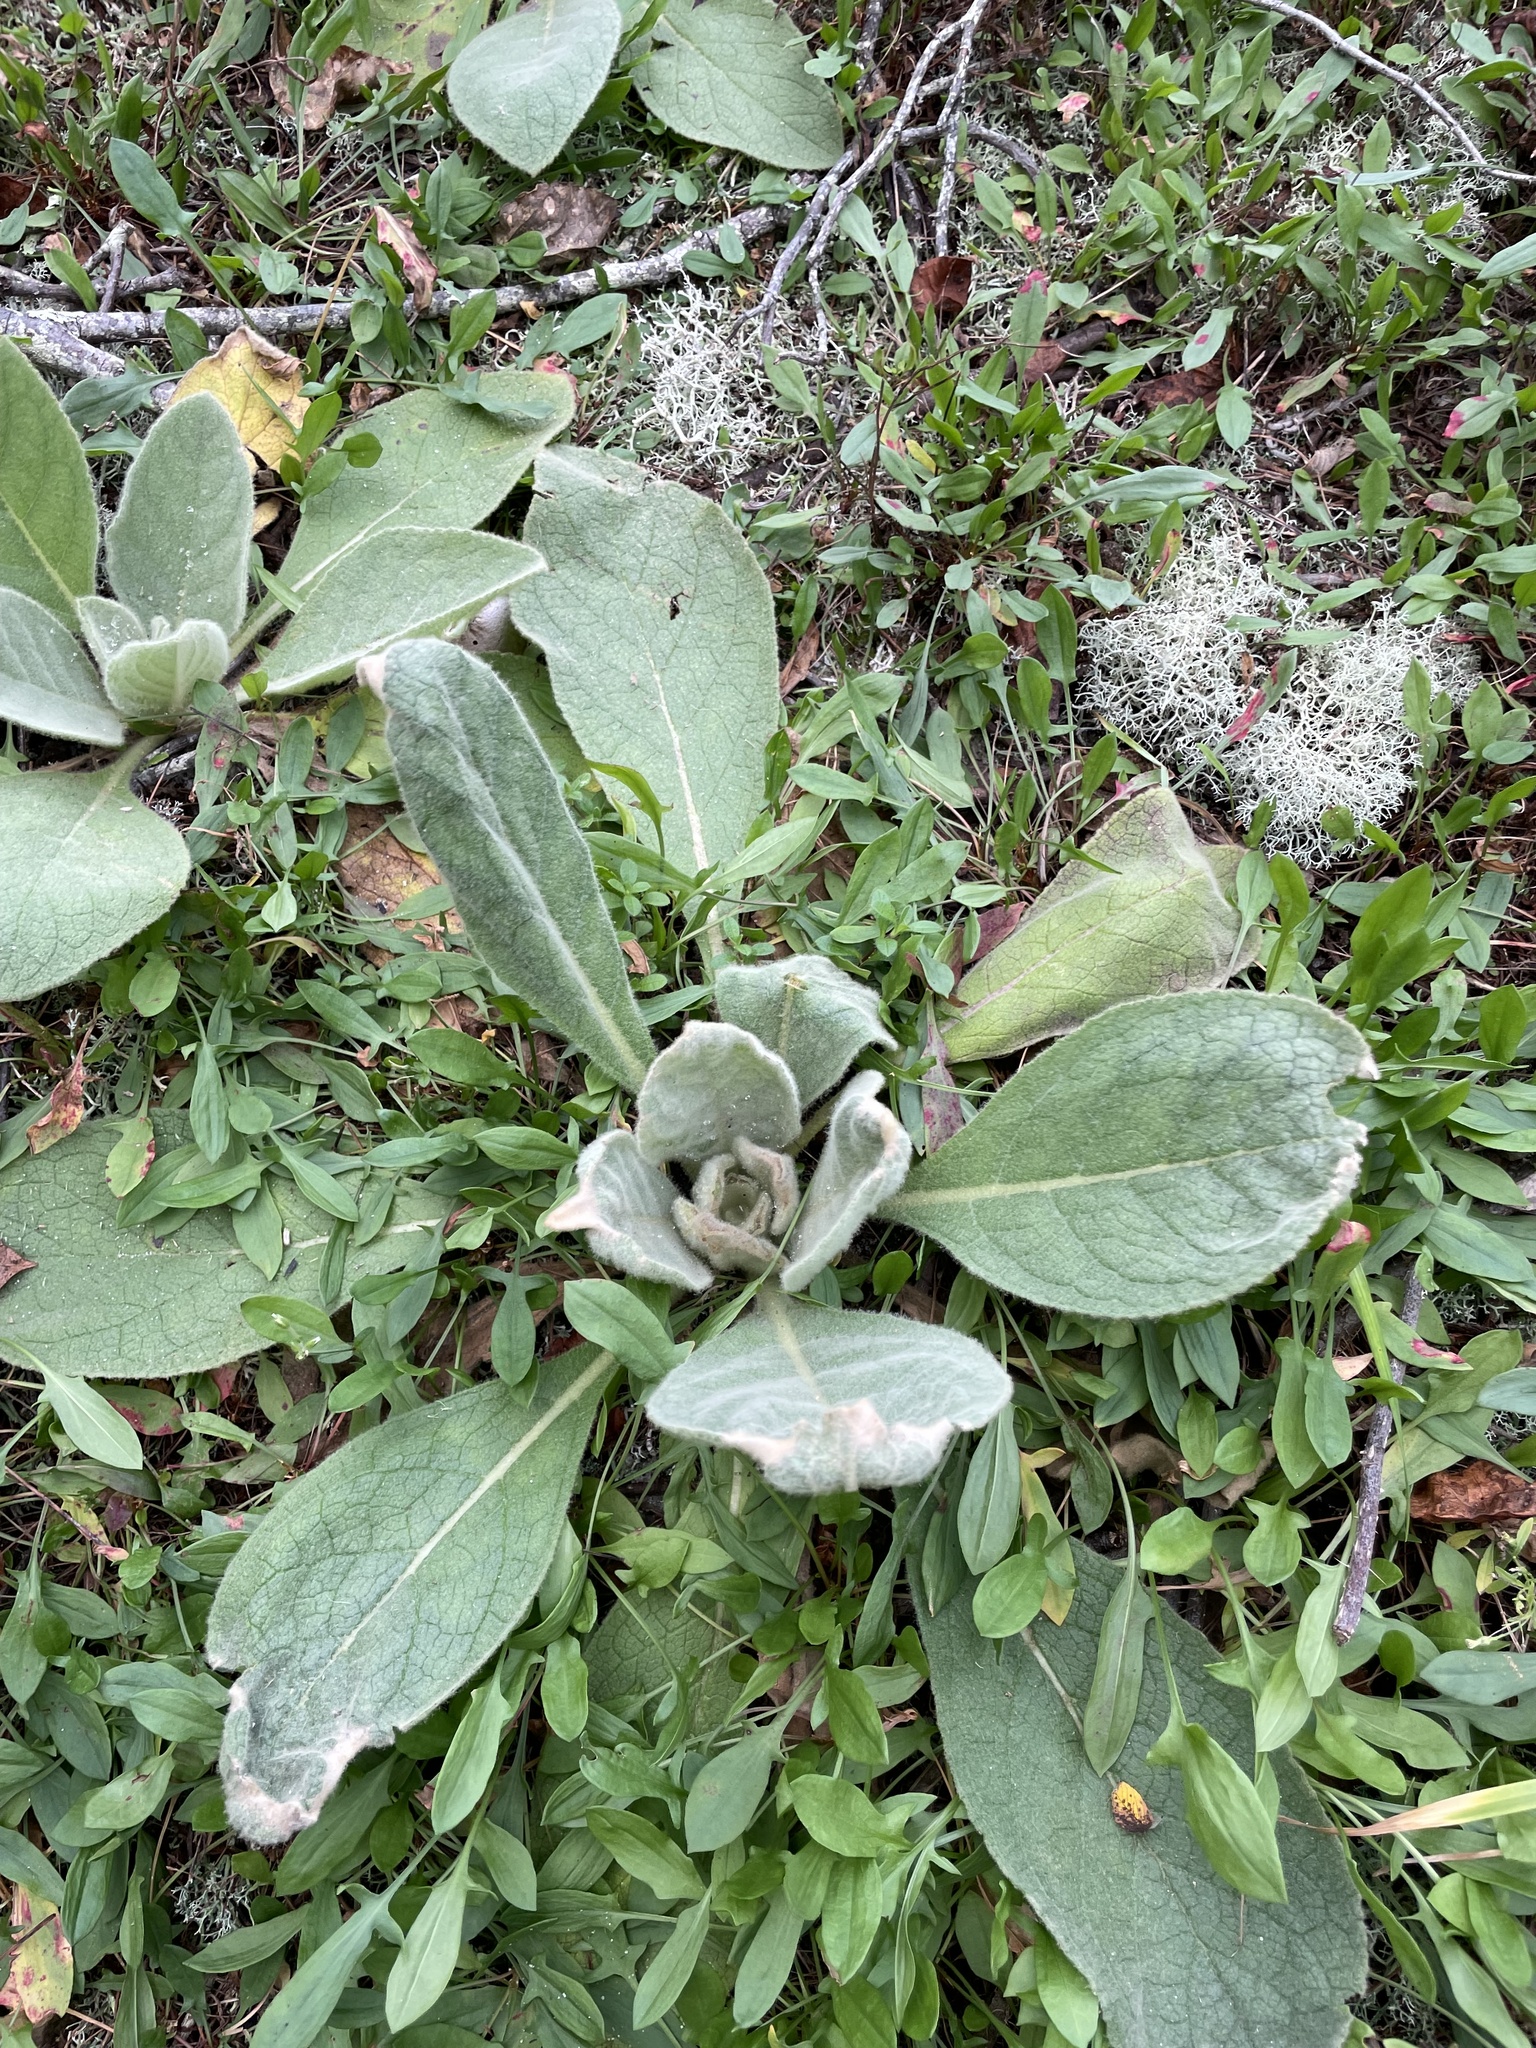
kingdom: Plantae
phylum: Tracheophyta
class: Magnoliopsida
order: Lamiales
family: Scrophulariaceae
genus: Verbascum
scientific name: Verbascum thapsus
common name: Common mullein
